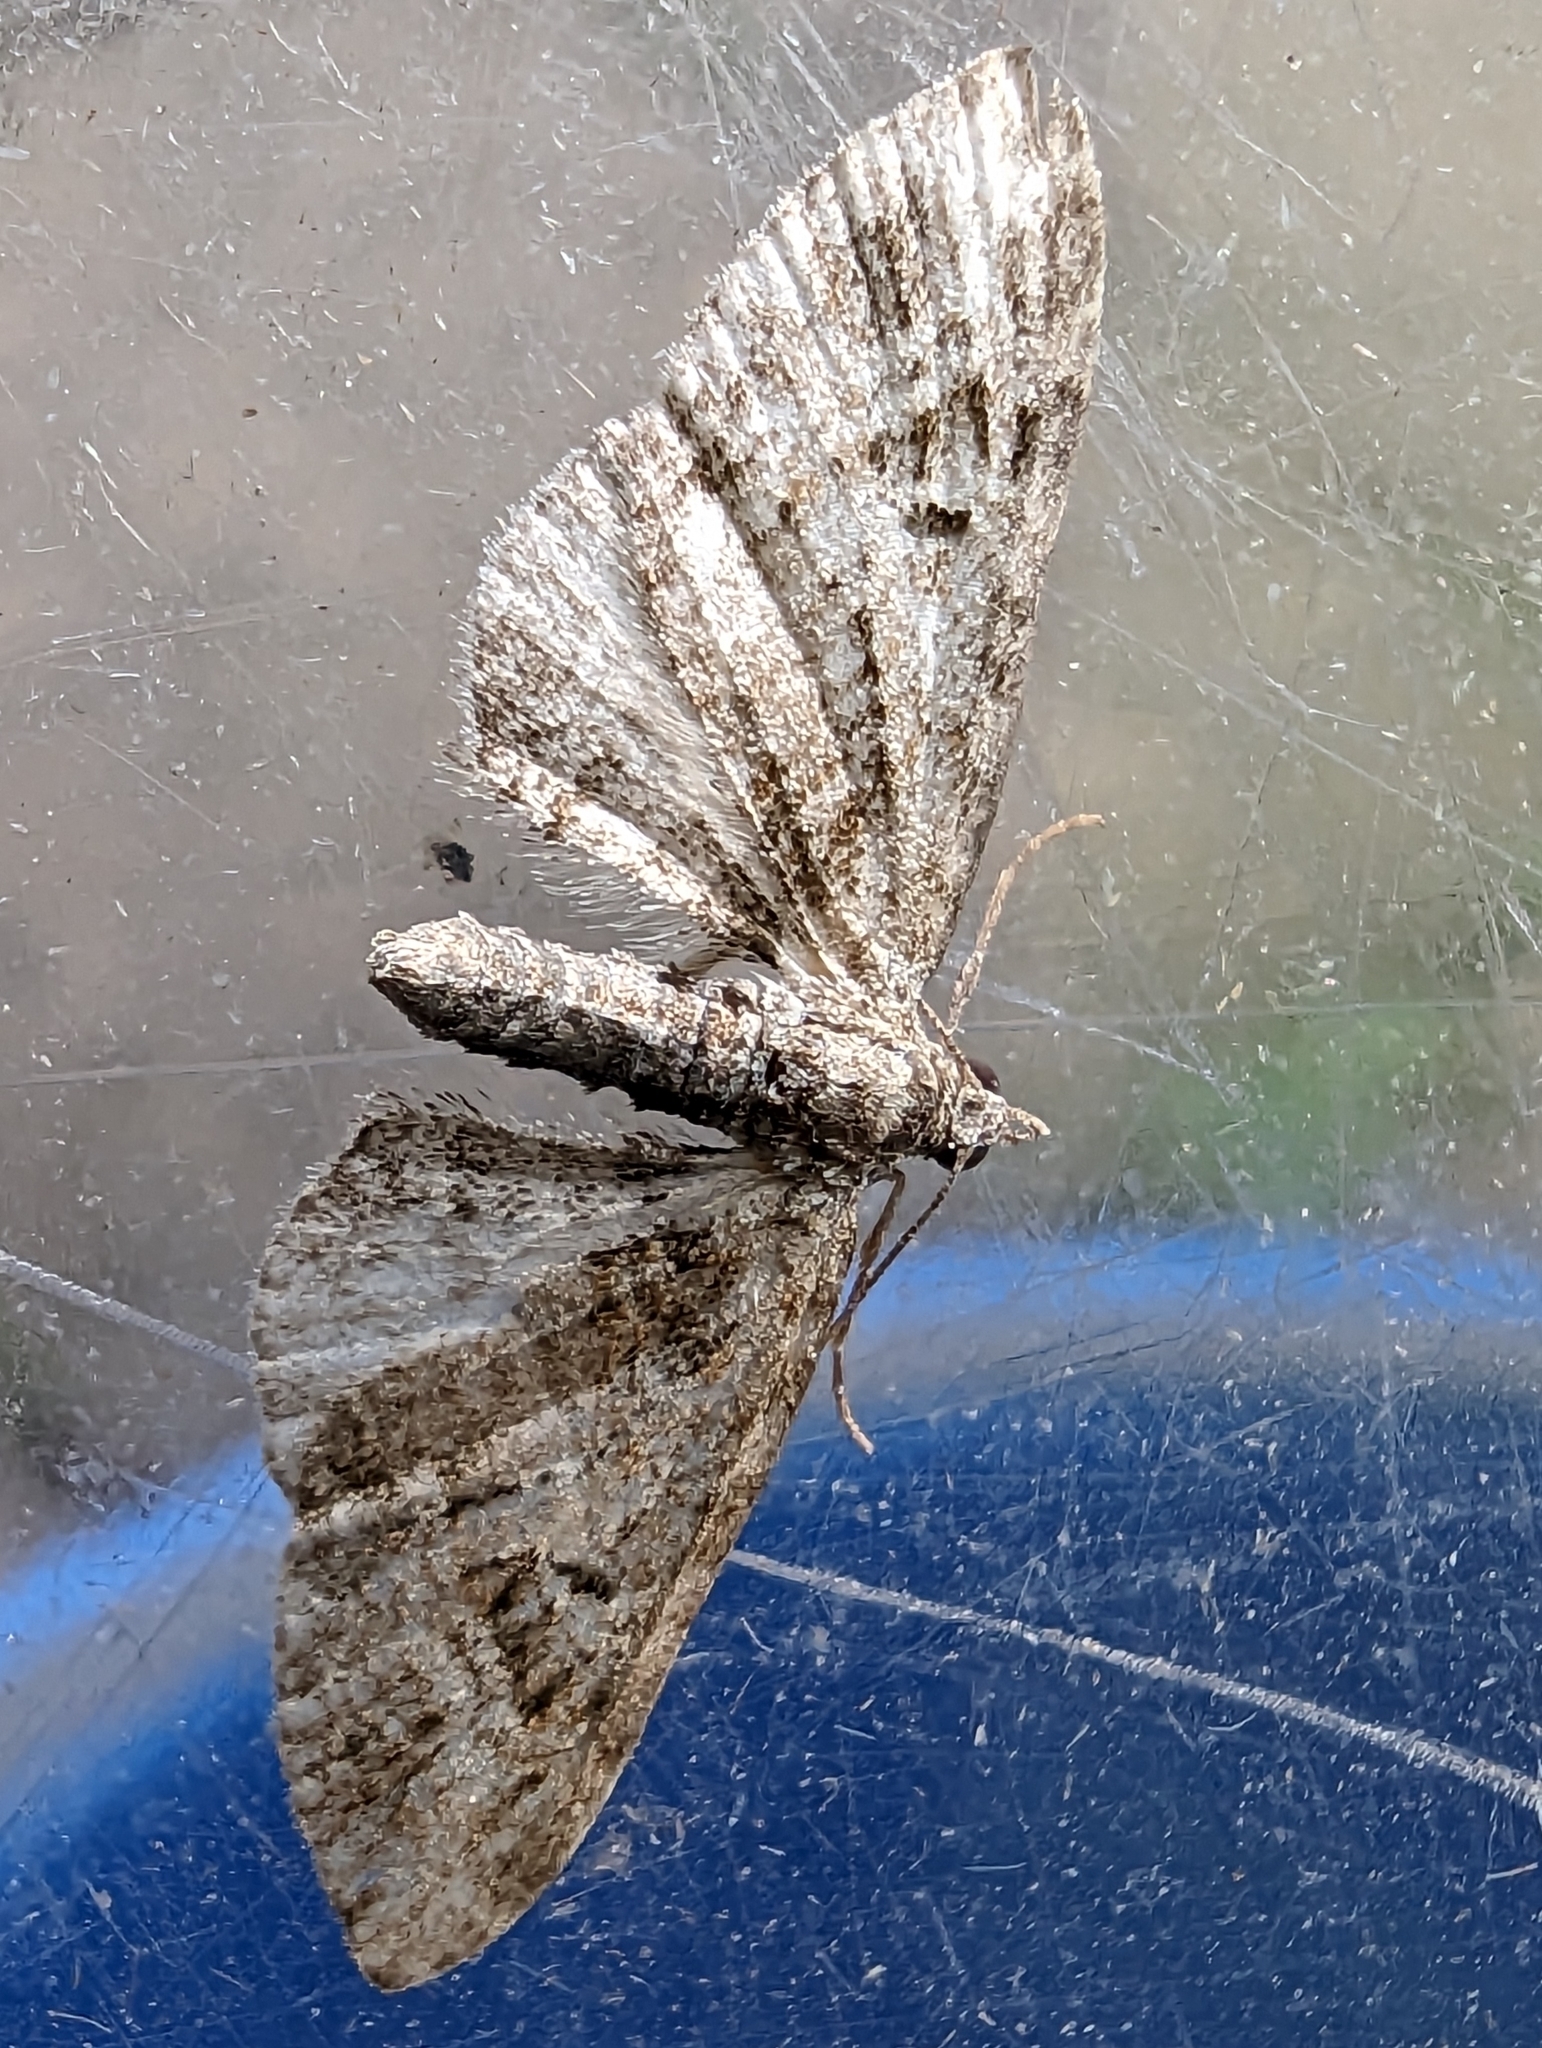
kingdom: Animalia
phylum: Arthropoda
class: Insecta
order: Lepidoptera
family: Geometridae
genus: Eupithecia
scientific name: Eupithecia exiguata
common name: Mottled pug
